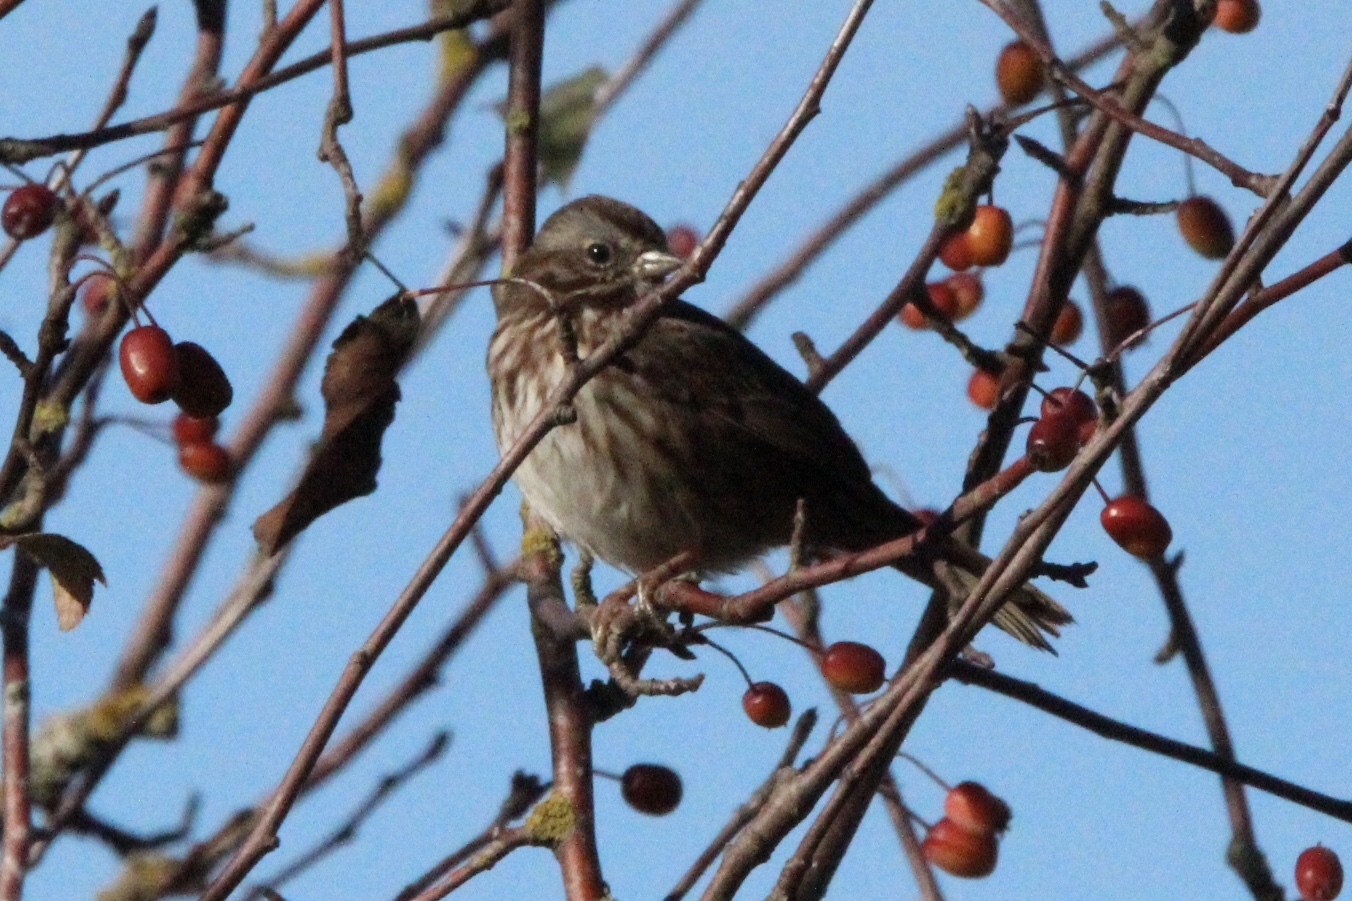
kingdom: Animalia
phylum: Chordata
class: Aves
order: Passeriformes
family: Passerellidae
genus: Melospiza
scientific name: Melospiza melodia
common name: Song sparrow
